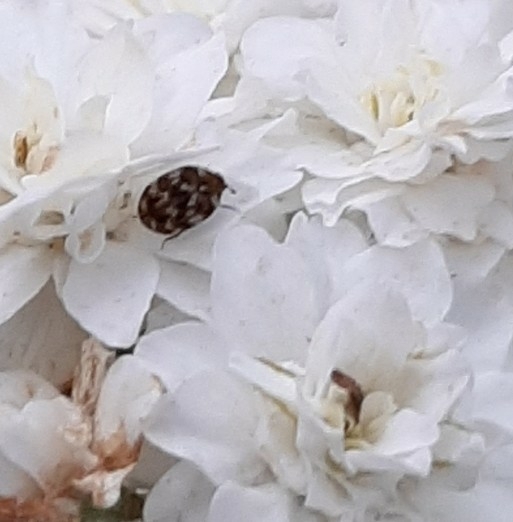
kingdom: Animalia
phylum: Arthropoda
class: Insecta
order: Coleoptera
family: Dermestidae
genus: Anthrenus
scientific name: Anthrenus verbasci
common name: Varied carpet beetle
